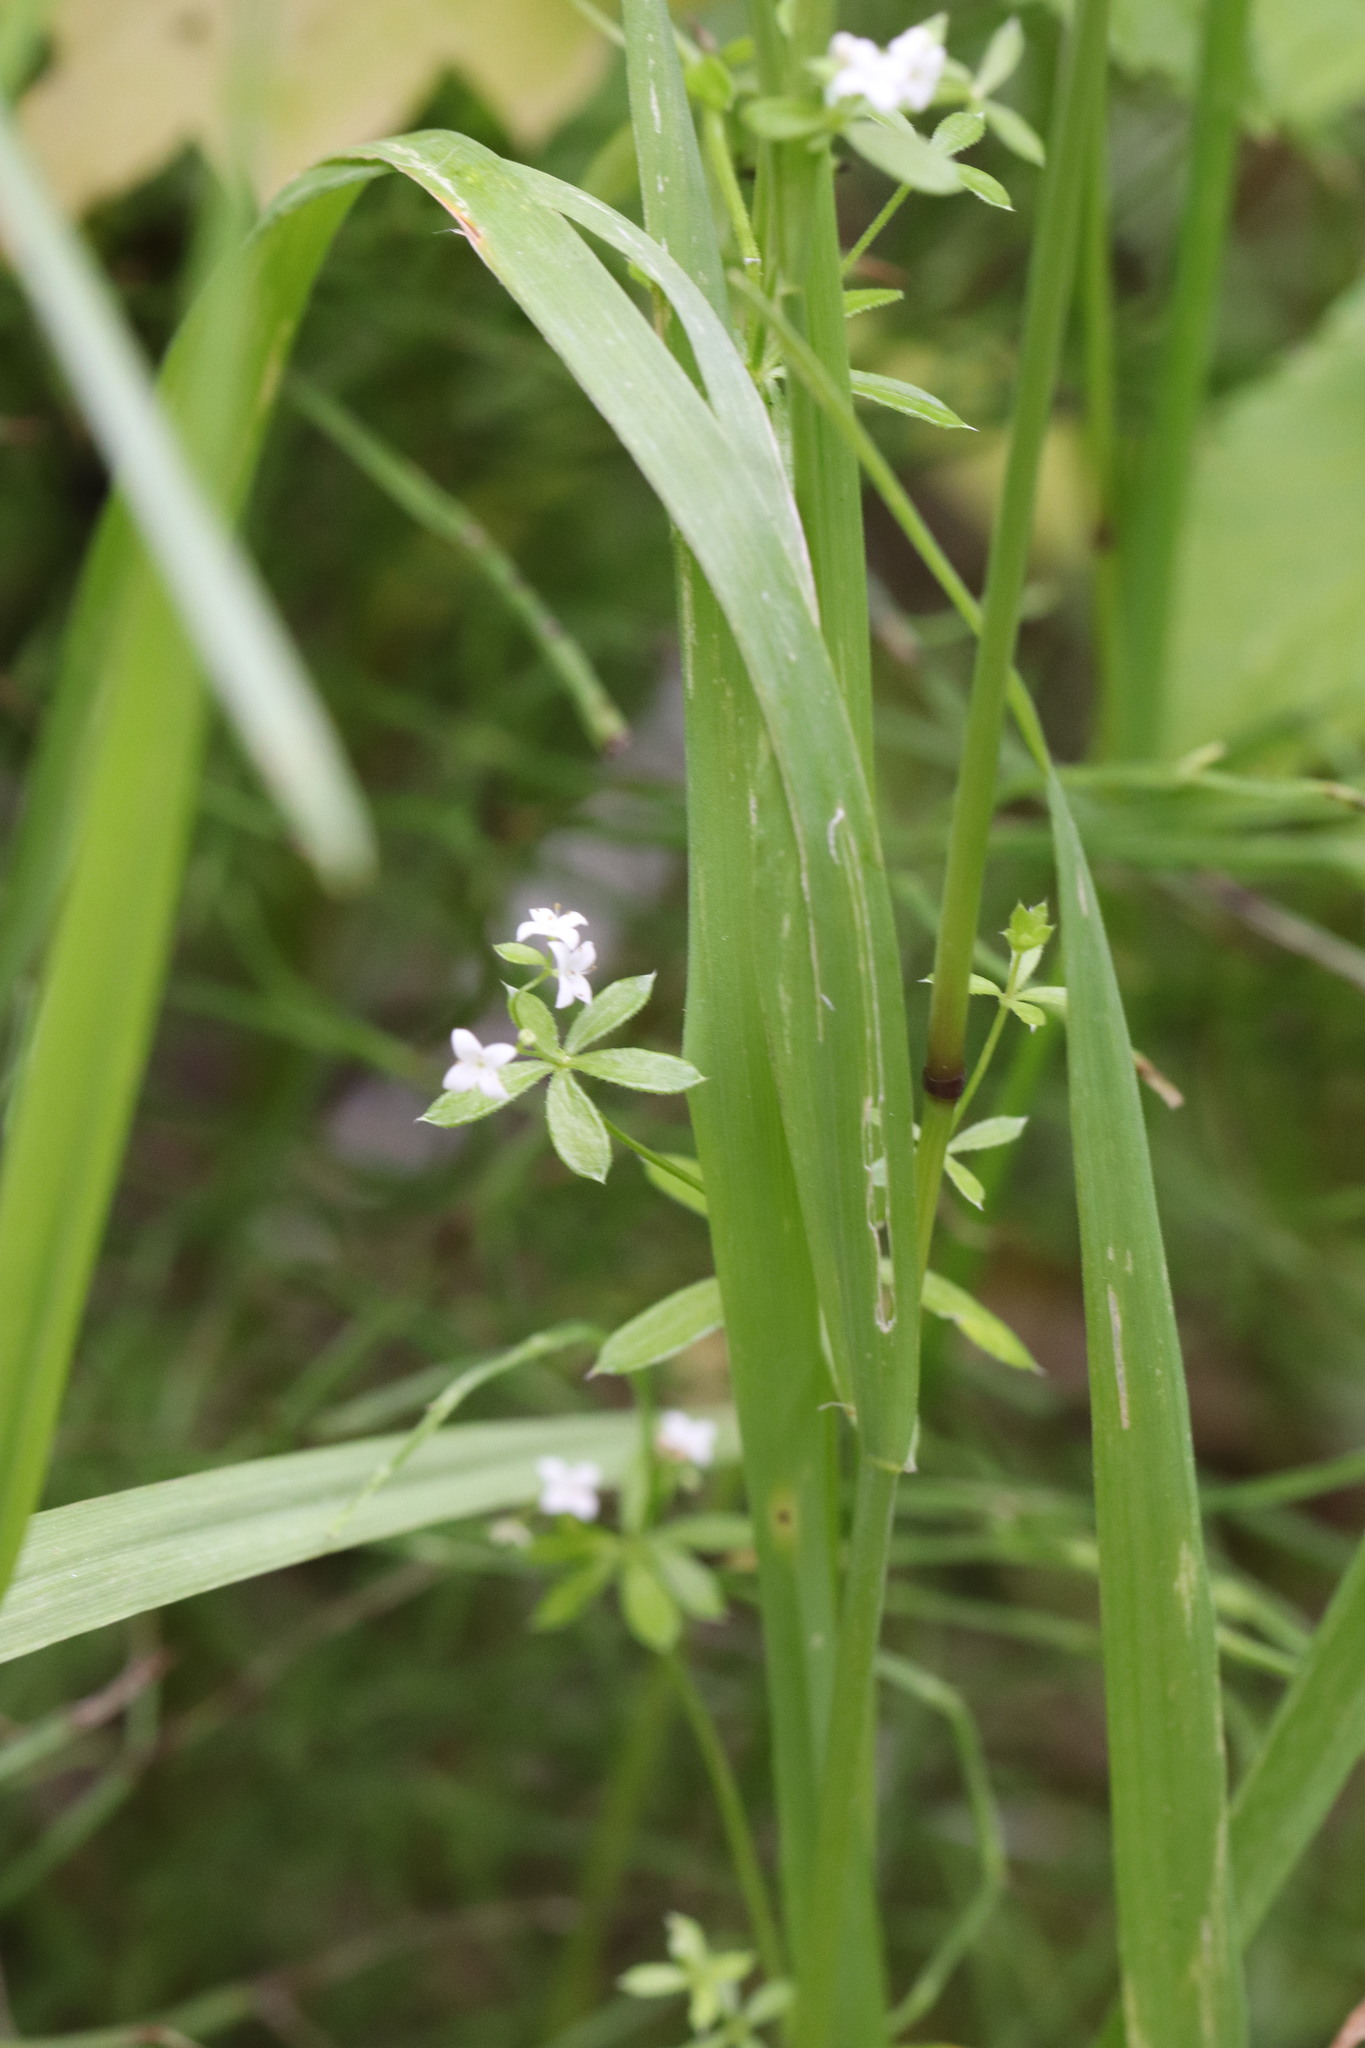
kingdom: Plantae
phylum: Tracheophyta
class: Magnoliopsida
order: Gentianales
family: Rubiaceae
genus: Galium
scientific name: Galium uliginosum
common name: Fen bedstraw
